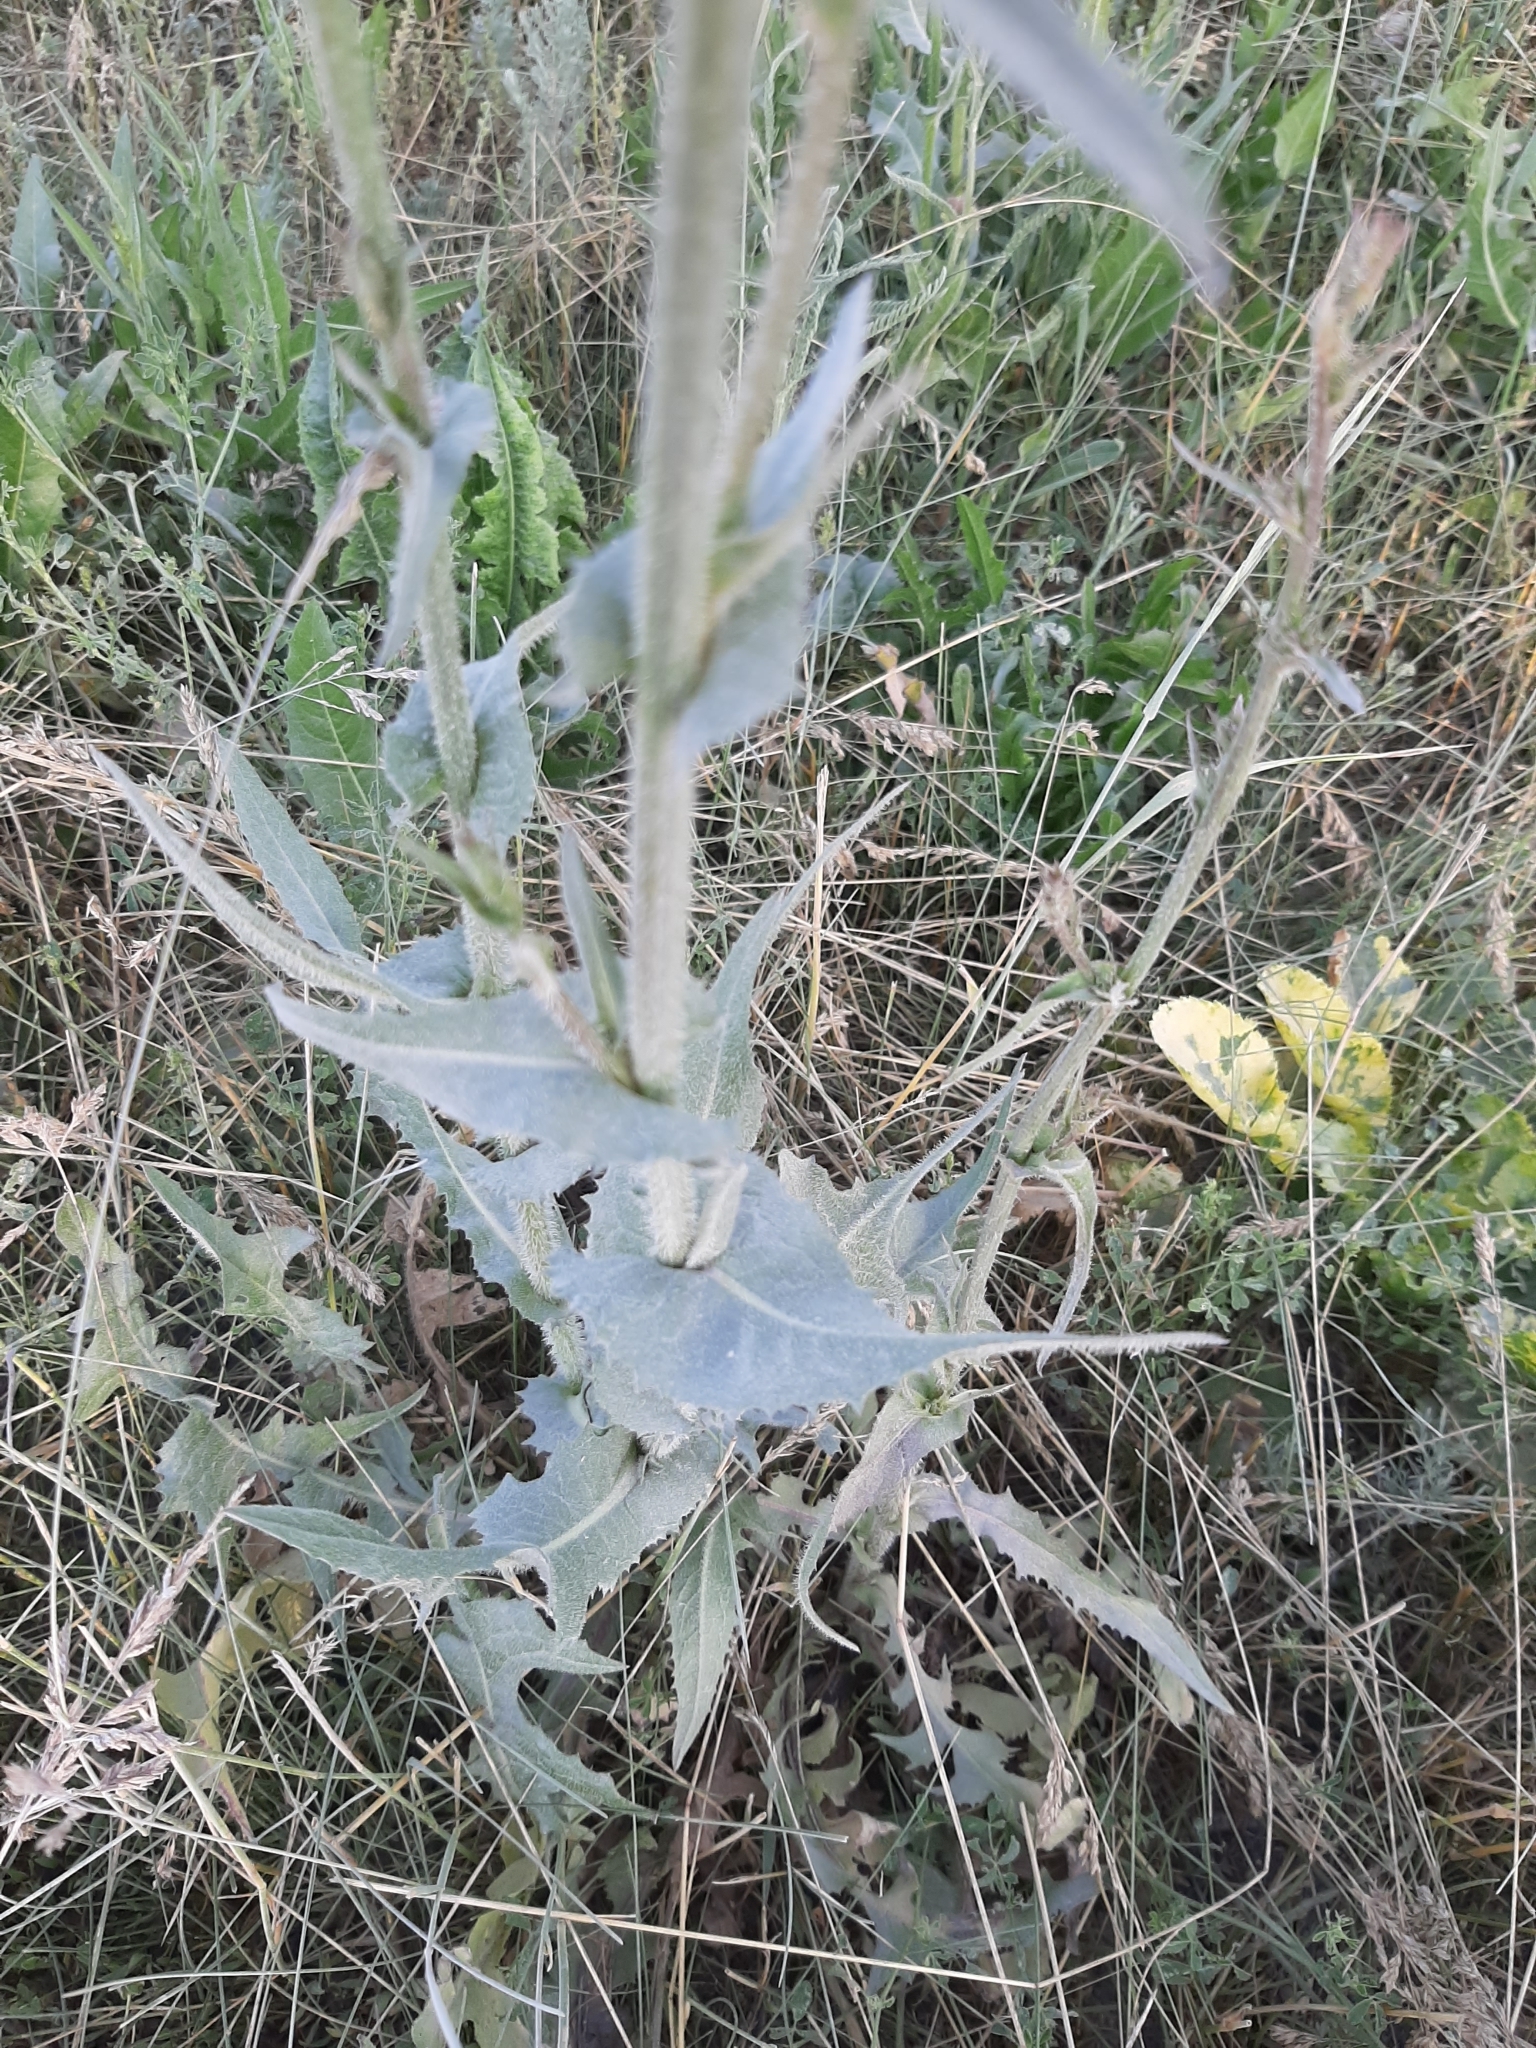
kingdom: Plantae
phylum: Tracheophyta
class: Magnoliopsida
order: Asterales
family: Asteraceae
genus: Cichorium
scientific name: Cichorium intybus
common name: Chicory
